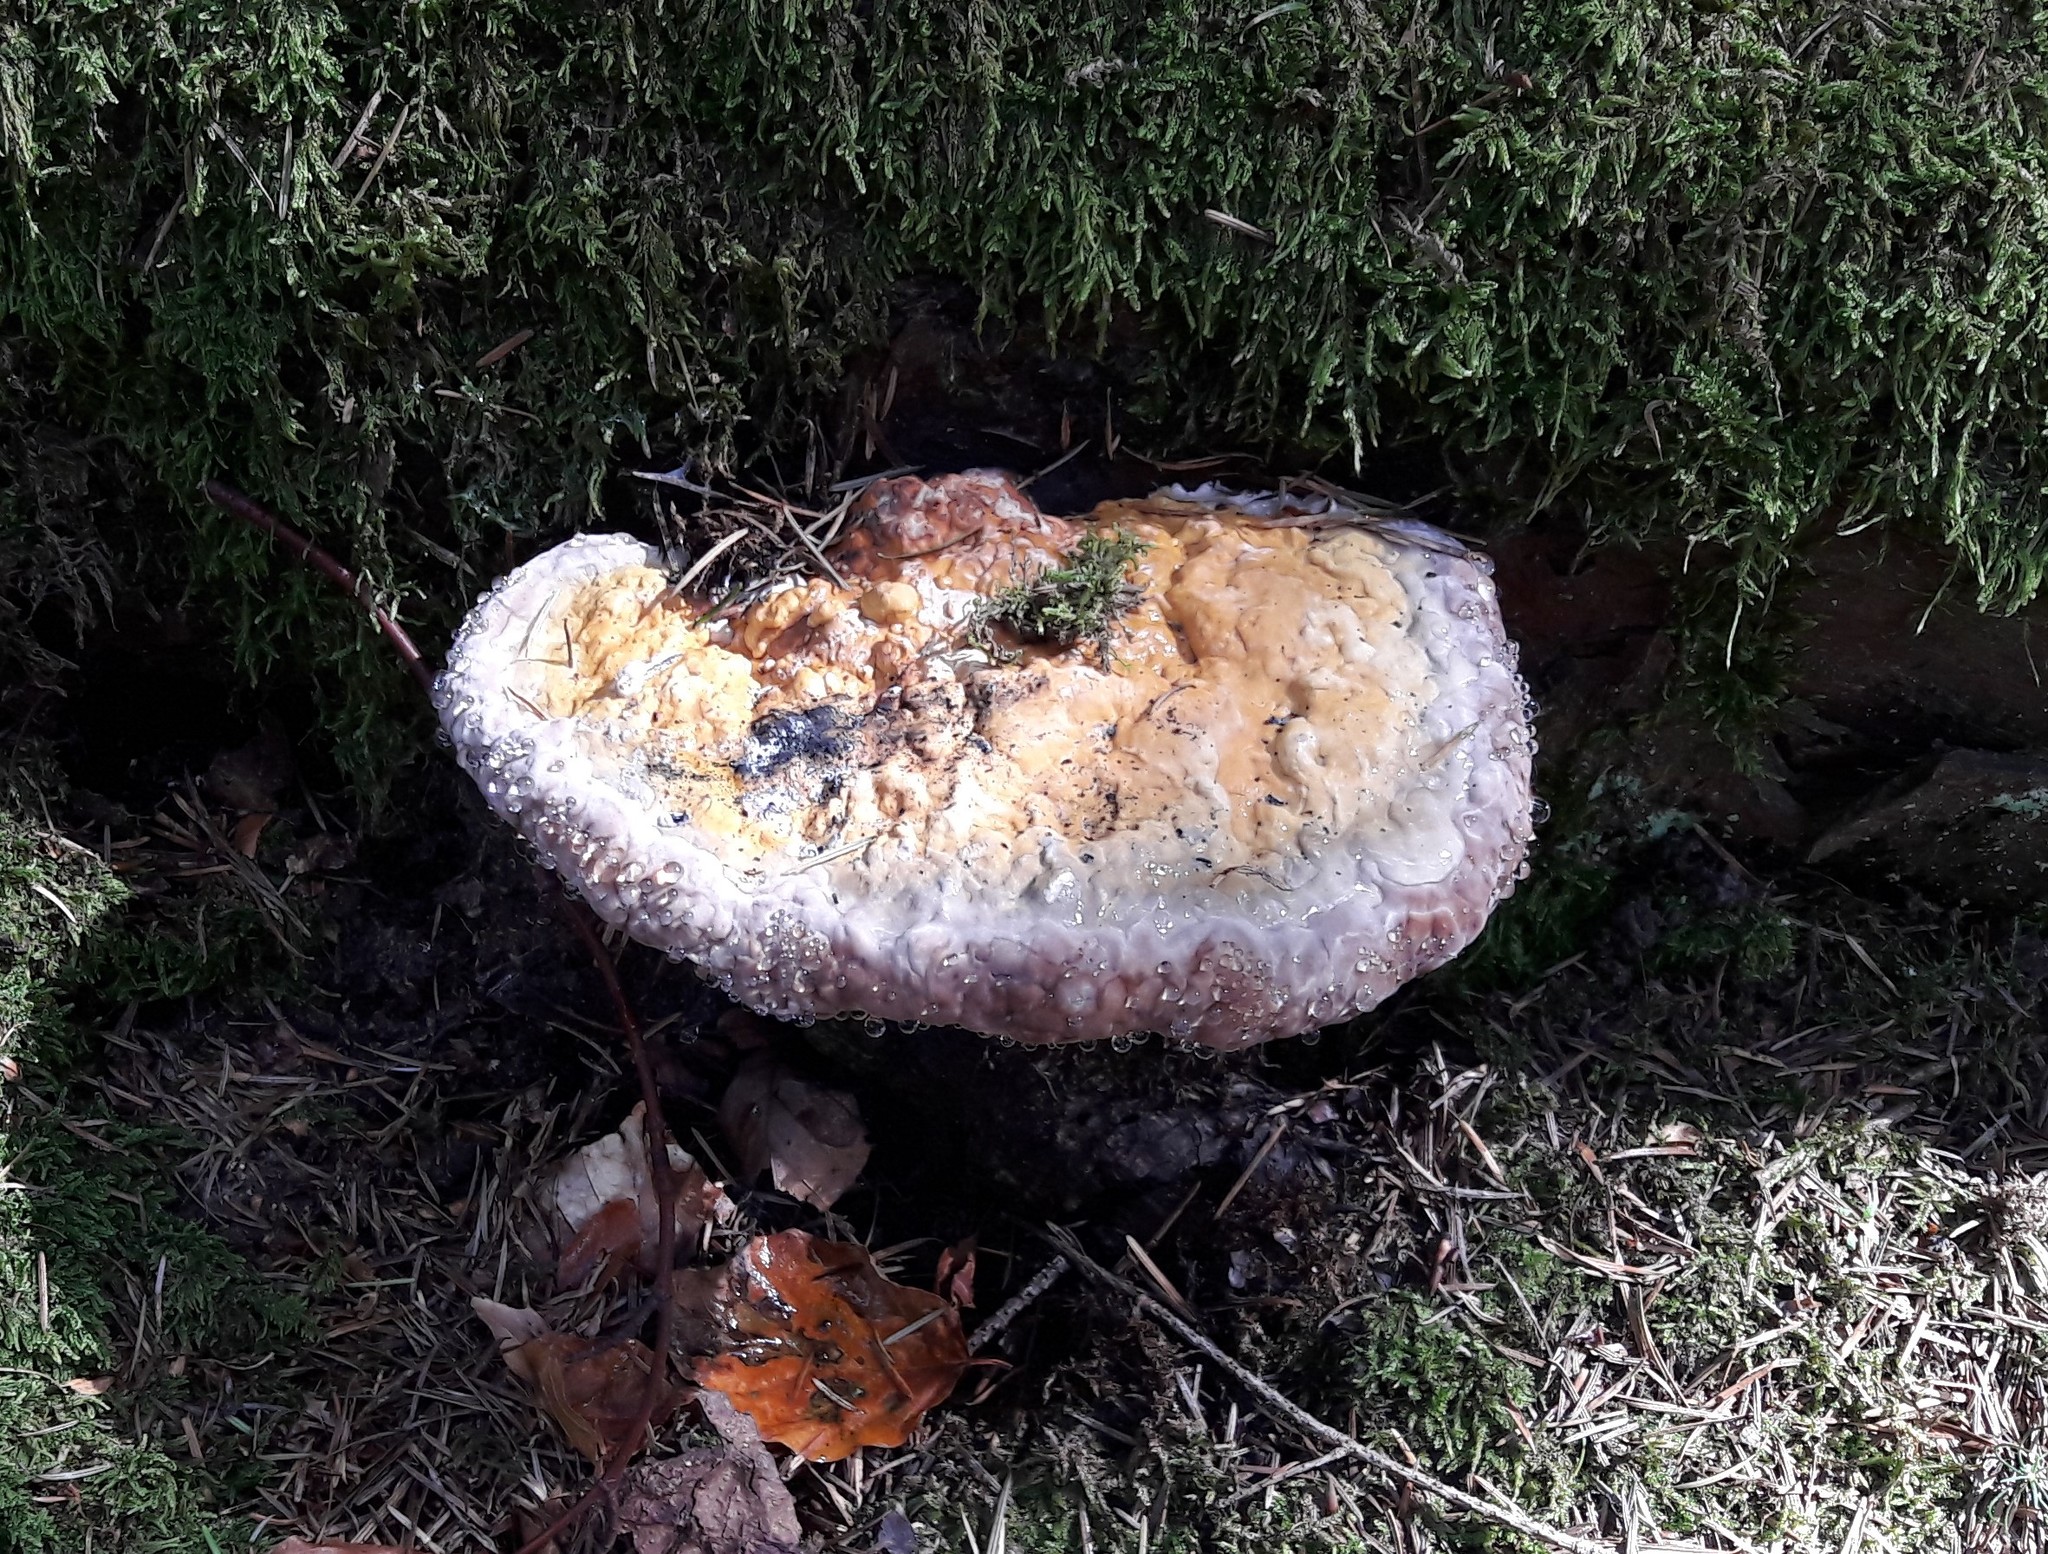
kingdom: Fungi
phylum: Basidiomycota
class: Agaricomycetes
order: Polyporales
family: Fomitopsidaceae
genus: Fomitopsis
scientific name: Fomitopsis pinicola
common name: Red-belted bracket
